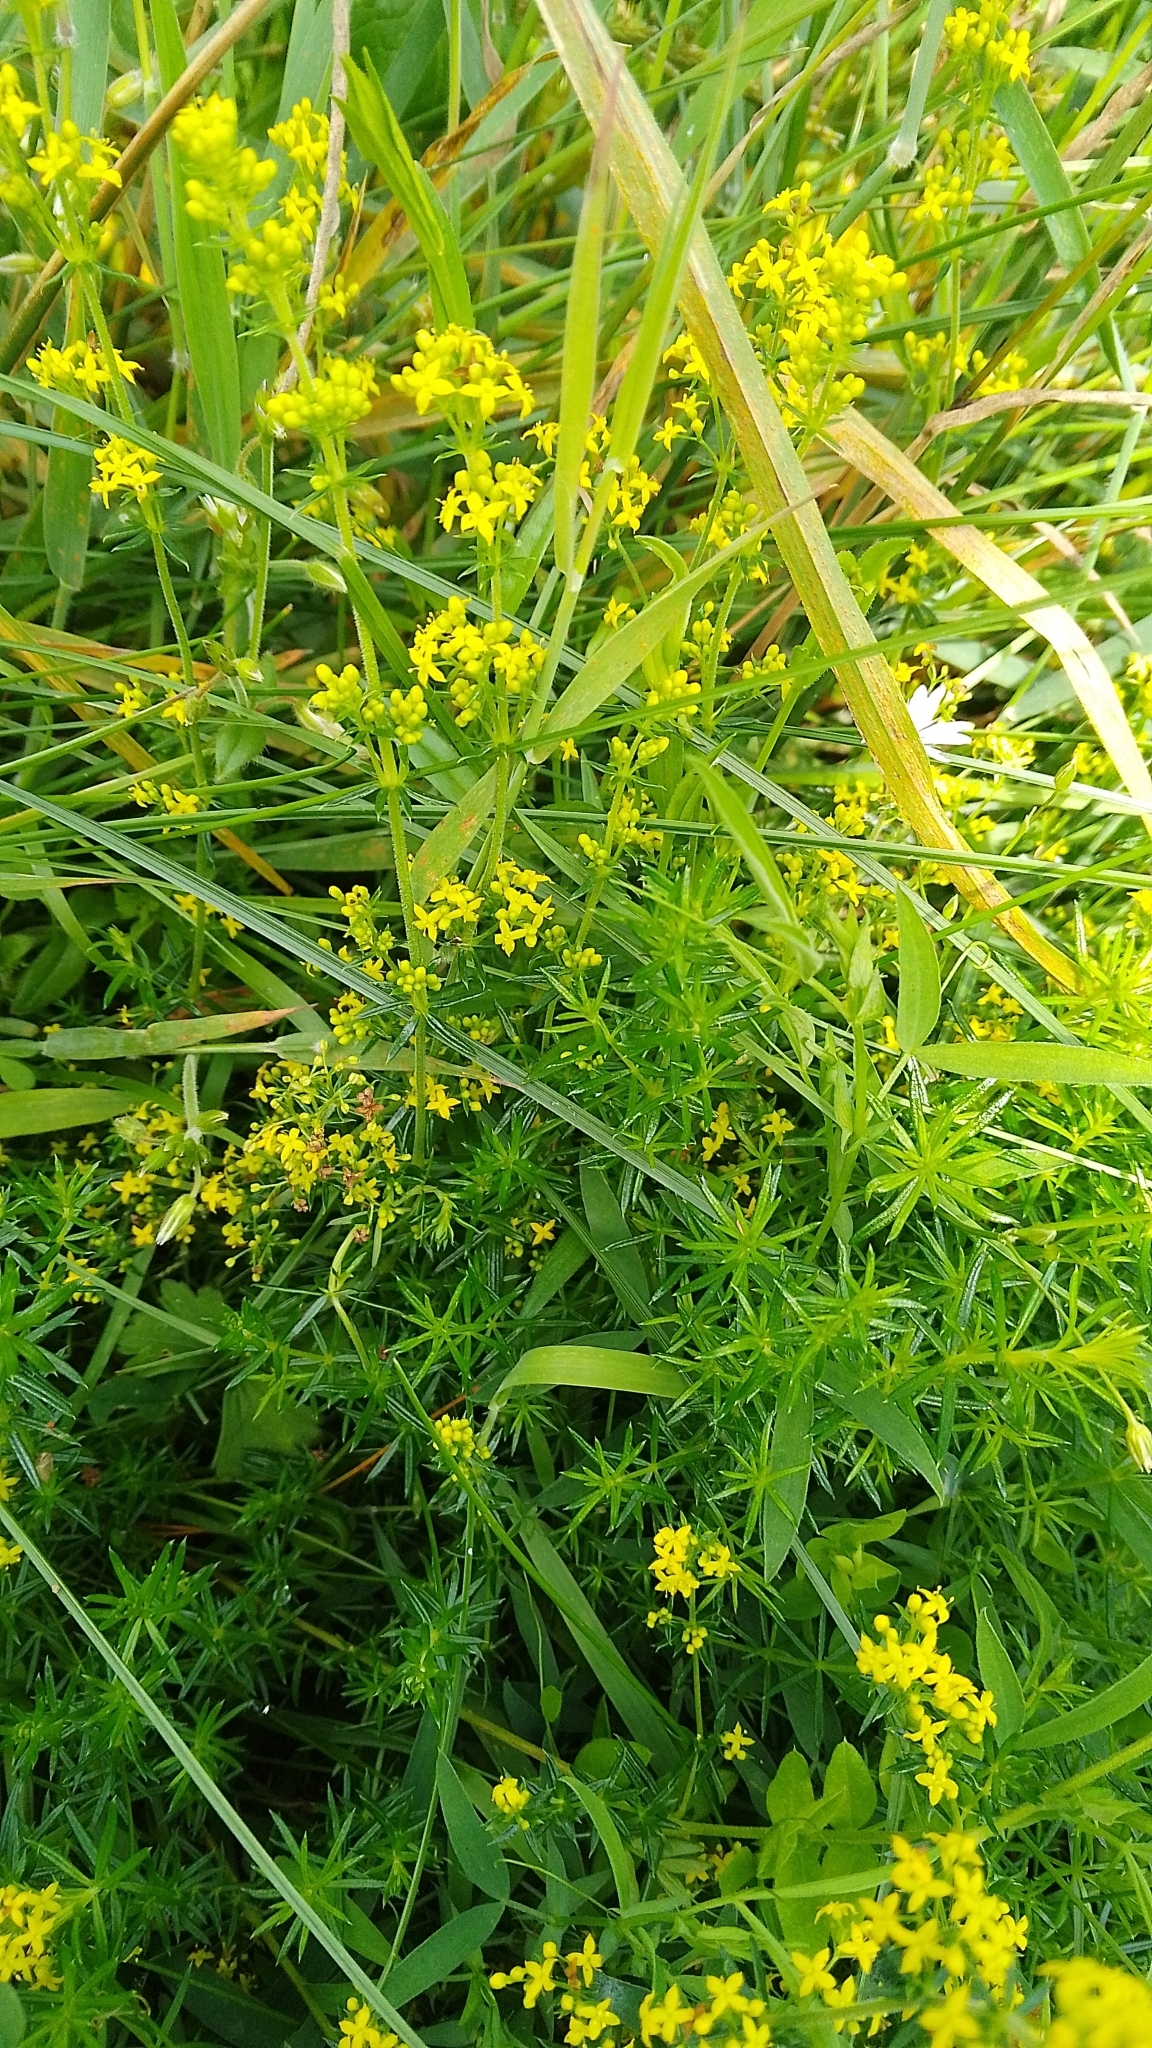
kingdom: Plantae
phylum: Tracheophyta
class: Magnoliopsida
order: Gentianales
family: Rubiaceae
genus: Galium
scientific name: Galium verum
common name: Lady's bedstraw
